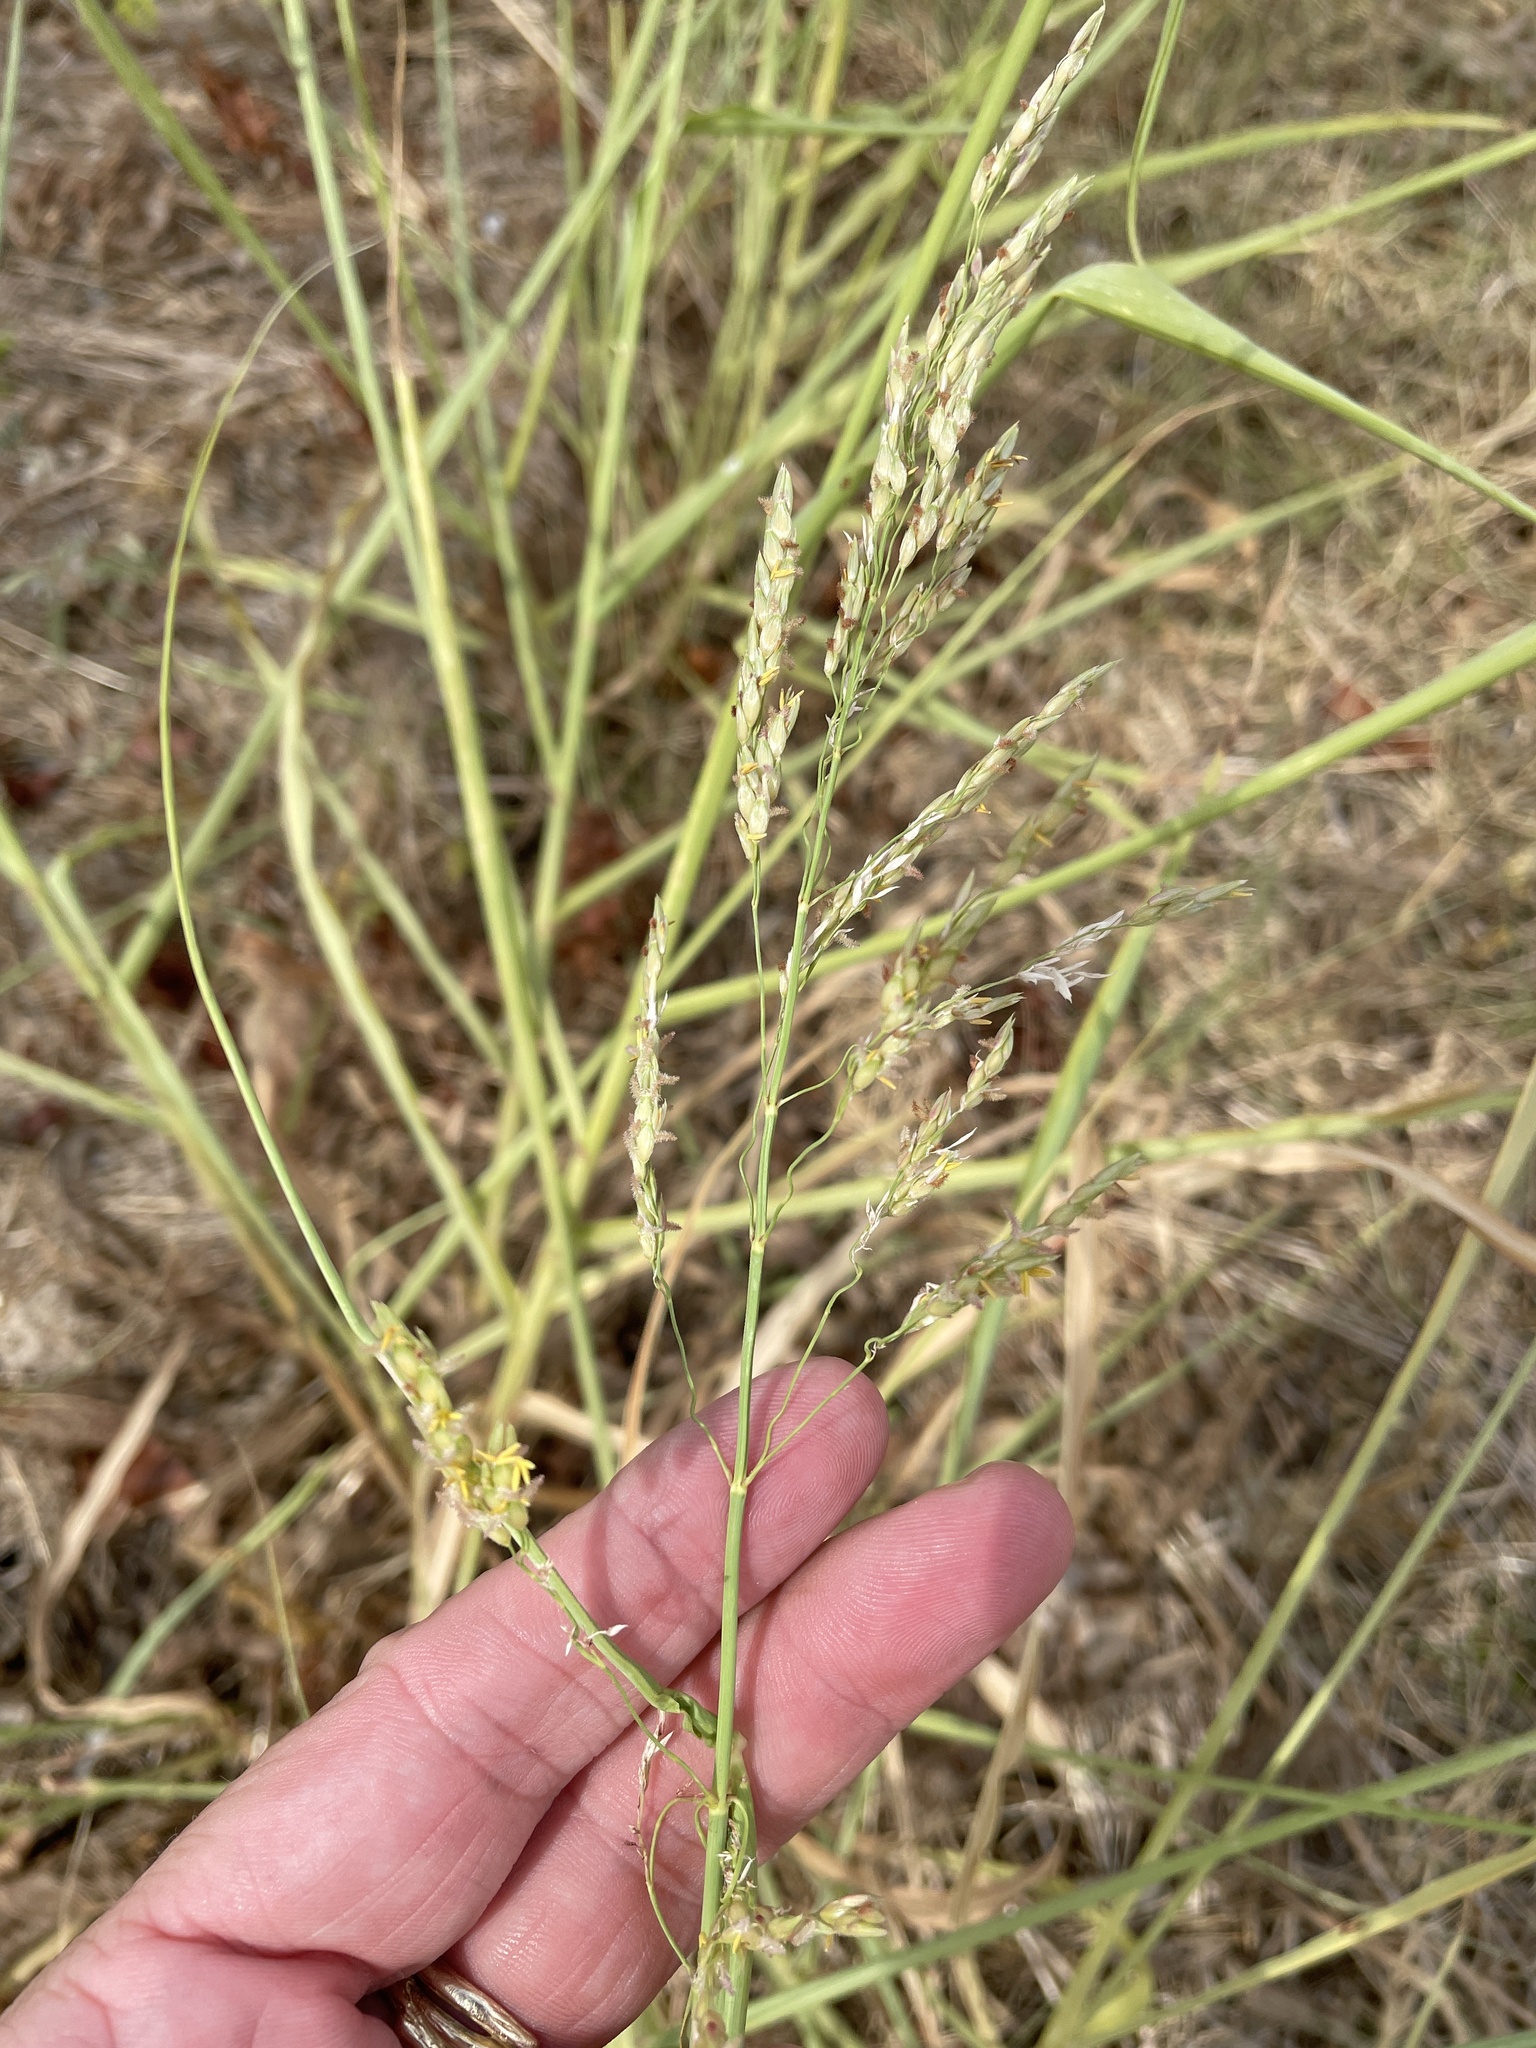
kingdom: Plantae
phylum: Tracheophyta
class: Liliopsida
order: Poales
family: Poaceae
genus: Sorghum
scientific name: Sorghum halepense
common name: Johnson-grass
